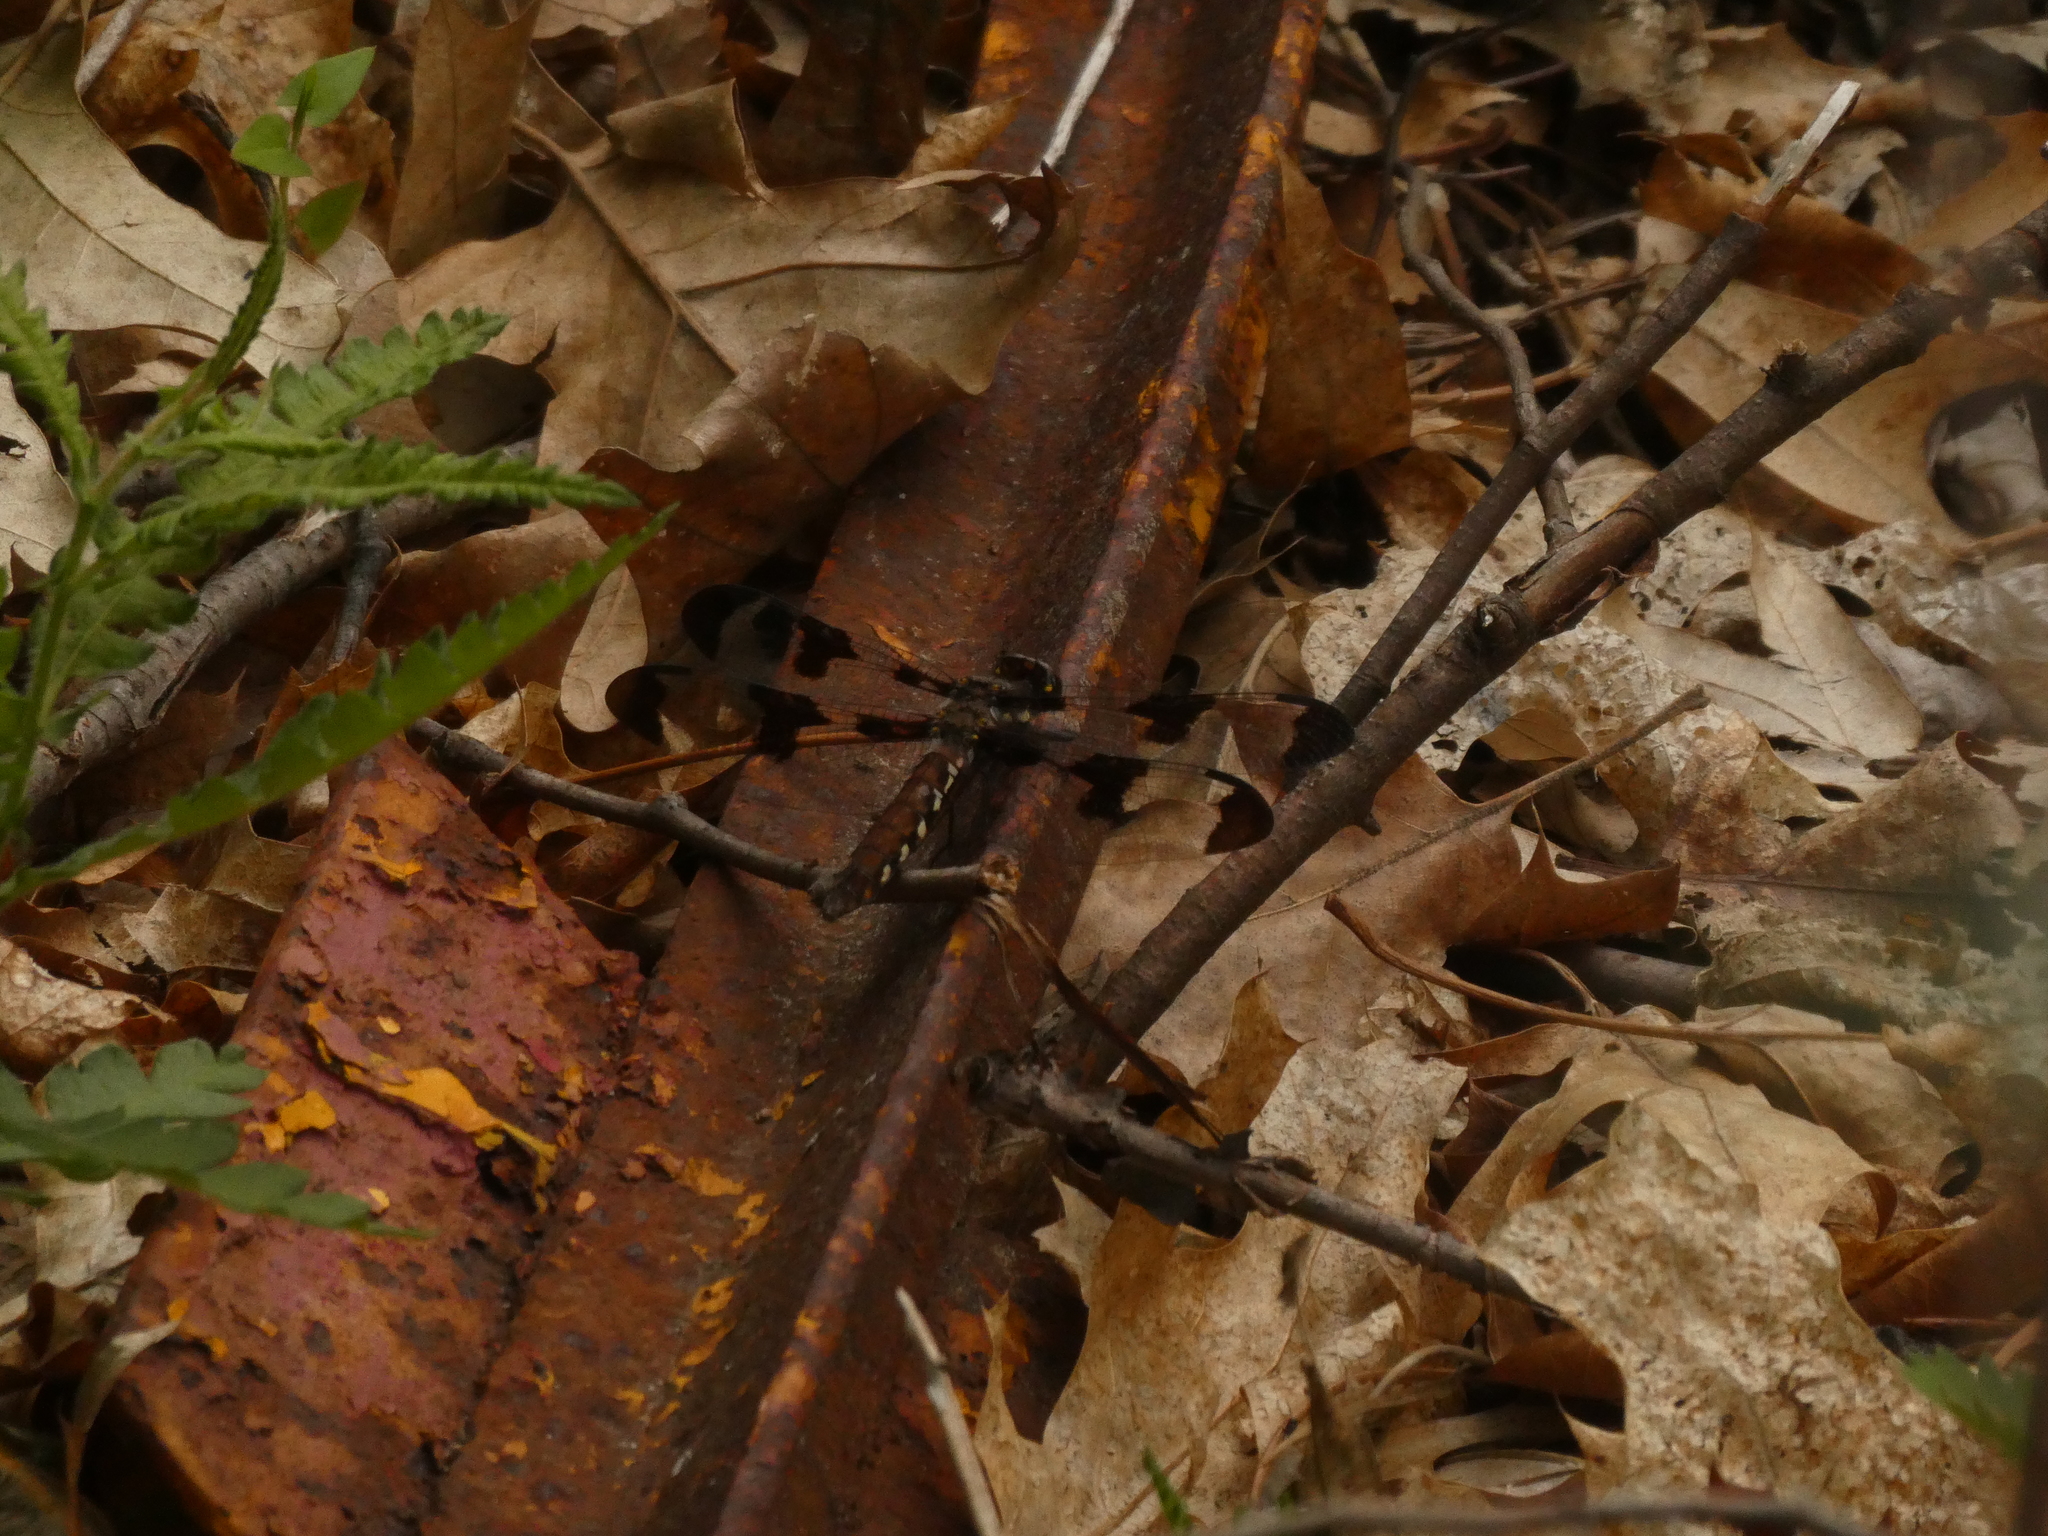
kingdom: Animalia
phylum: Arthropoda
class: Insecta
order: Odonata
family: Libellulidae
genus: Plathemis
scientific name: Plathemis lydia
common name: Common whitetail
